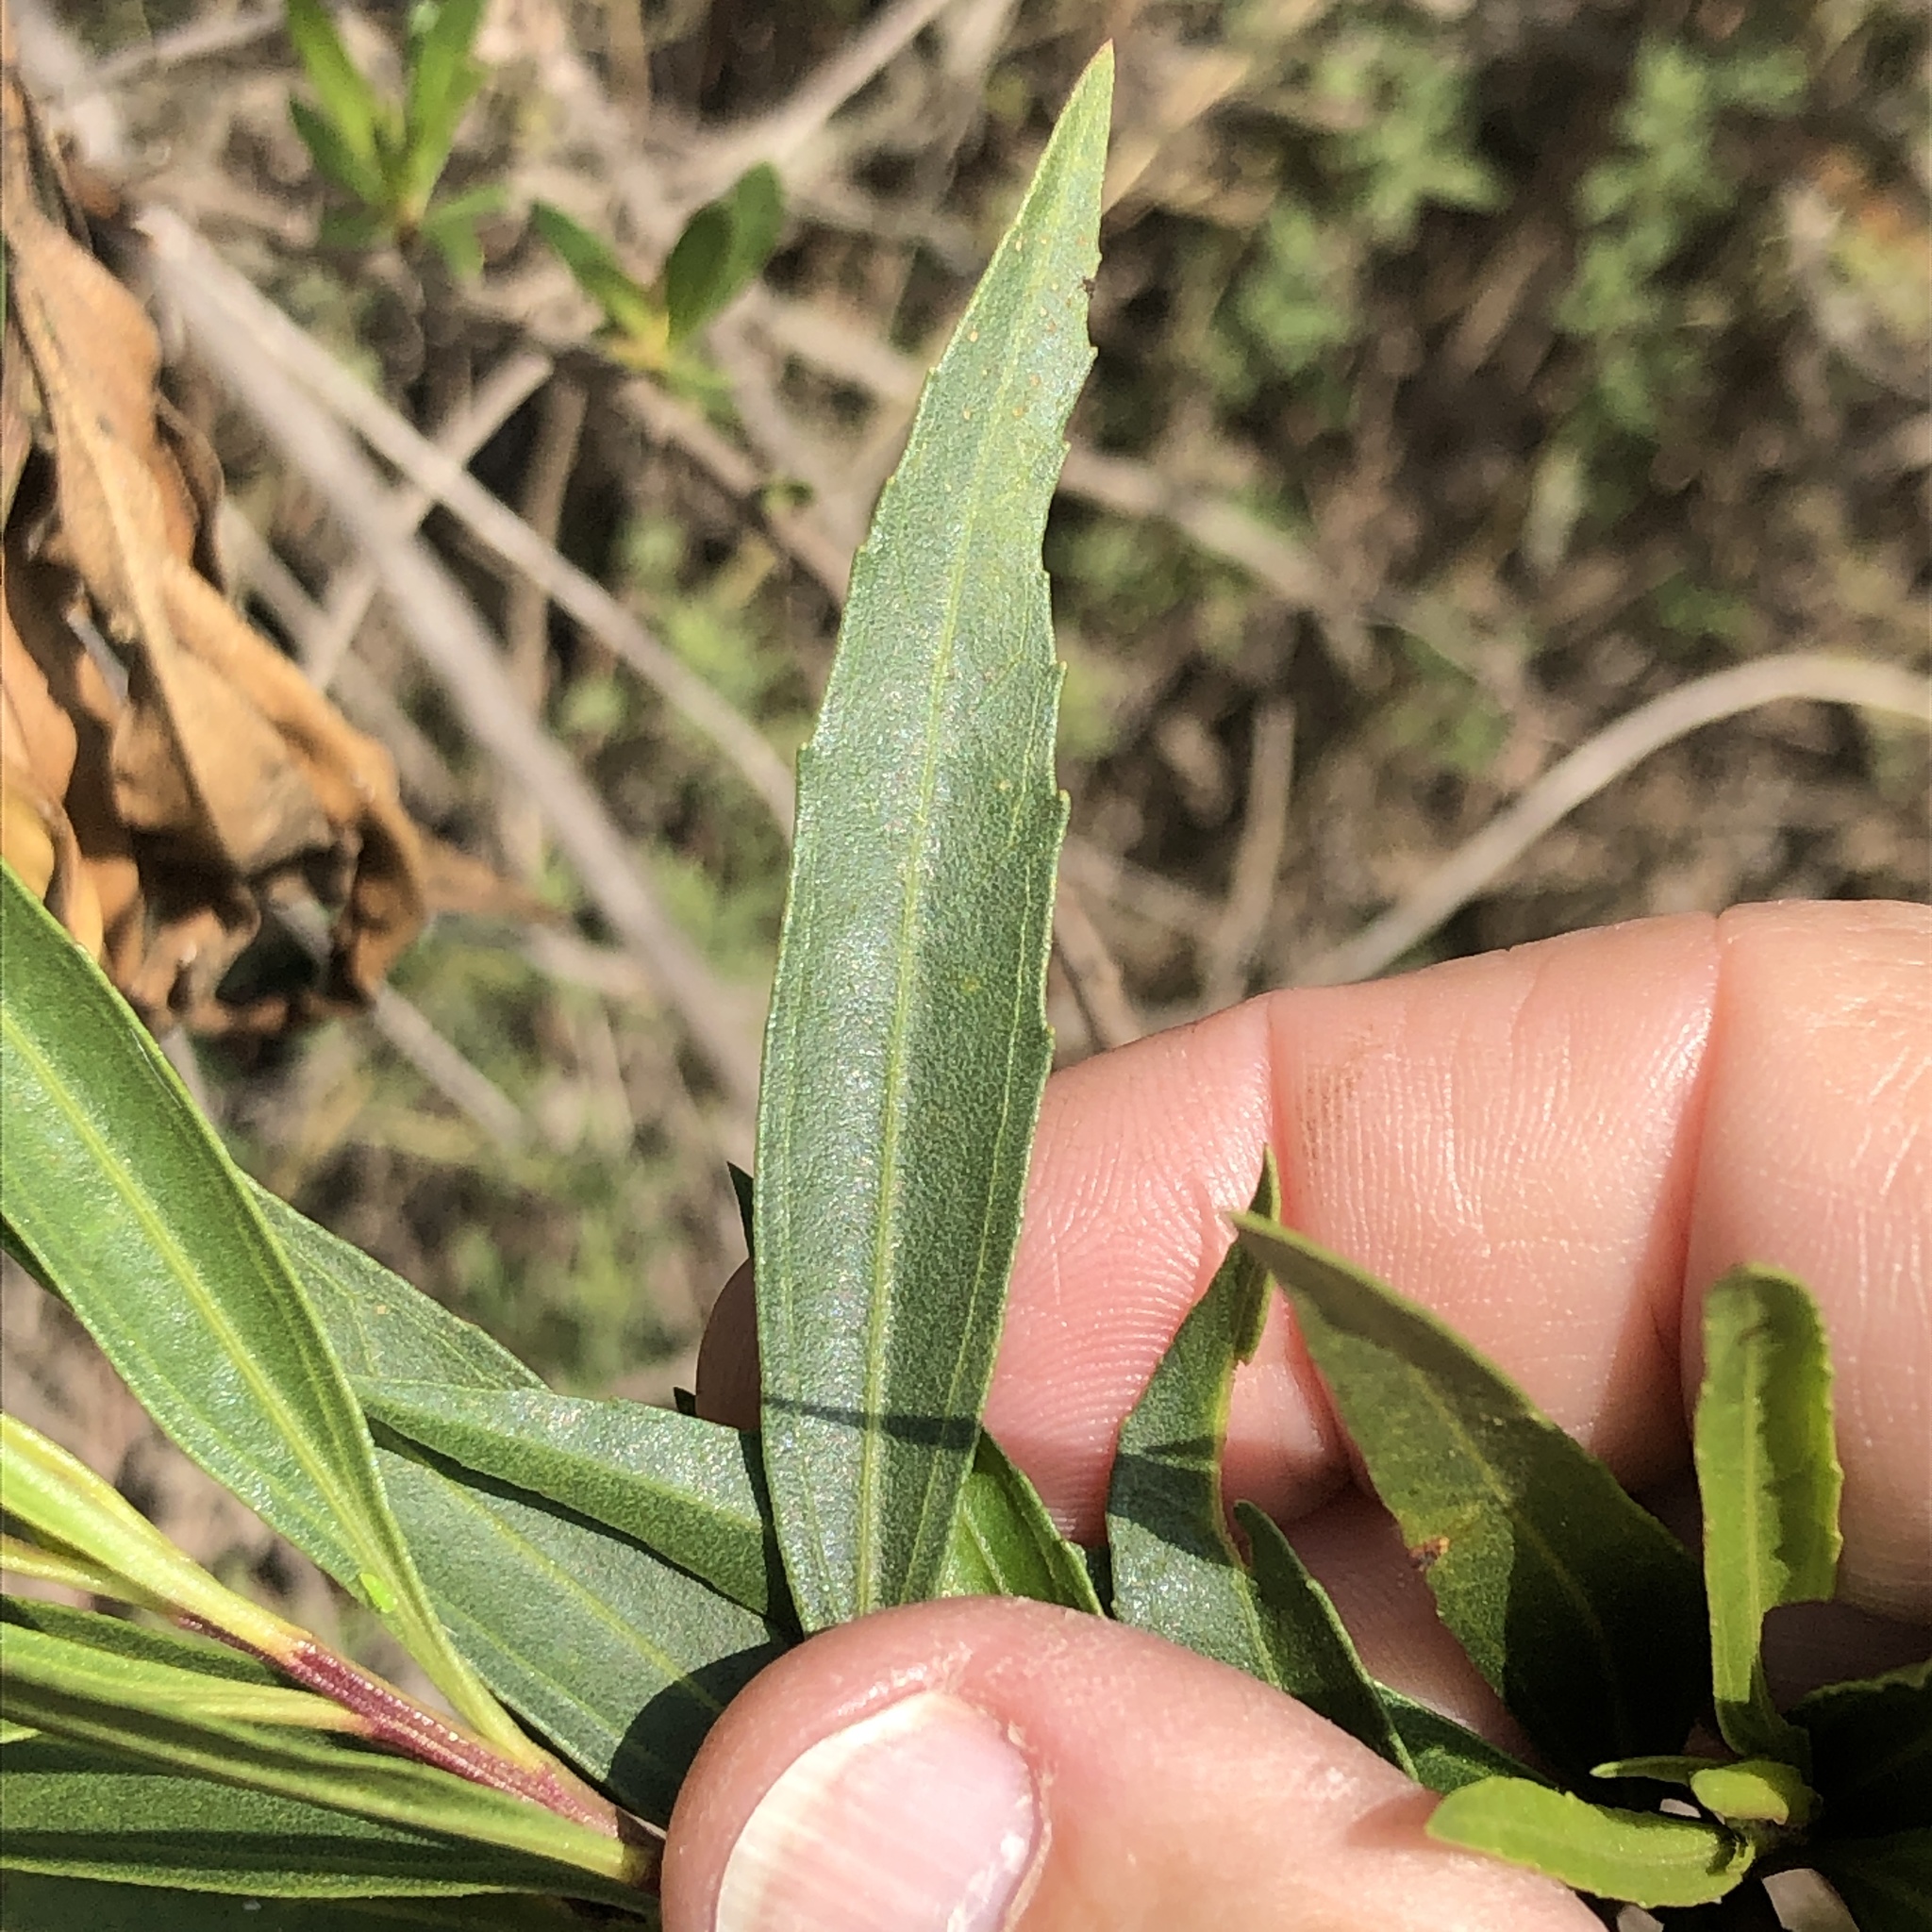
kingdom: Plantae
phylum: Tracheophyta
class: Magnoliopsida
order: Asterales
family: Asteraceae
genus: Baccharis
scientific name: Baccharis salicifolia
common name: Sticky baccharis
